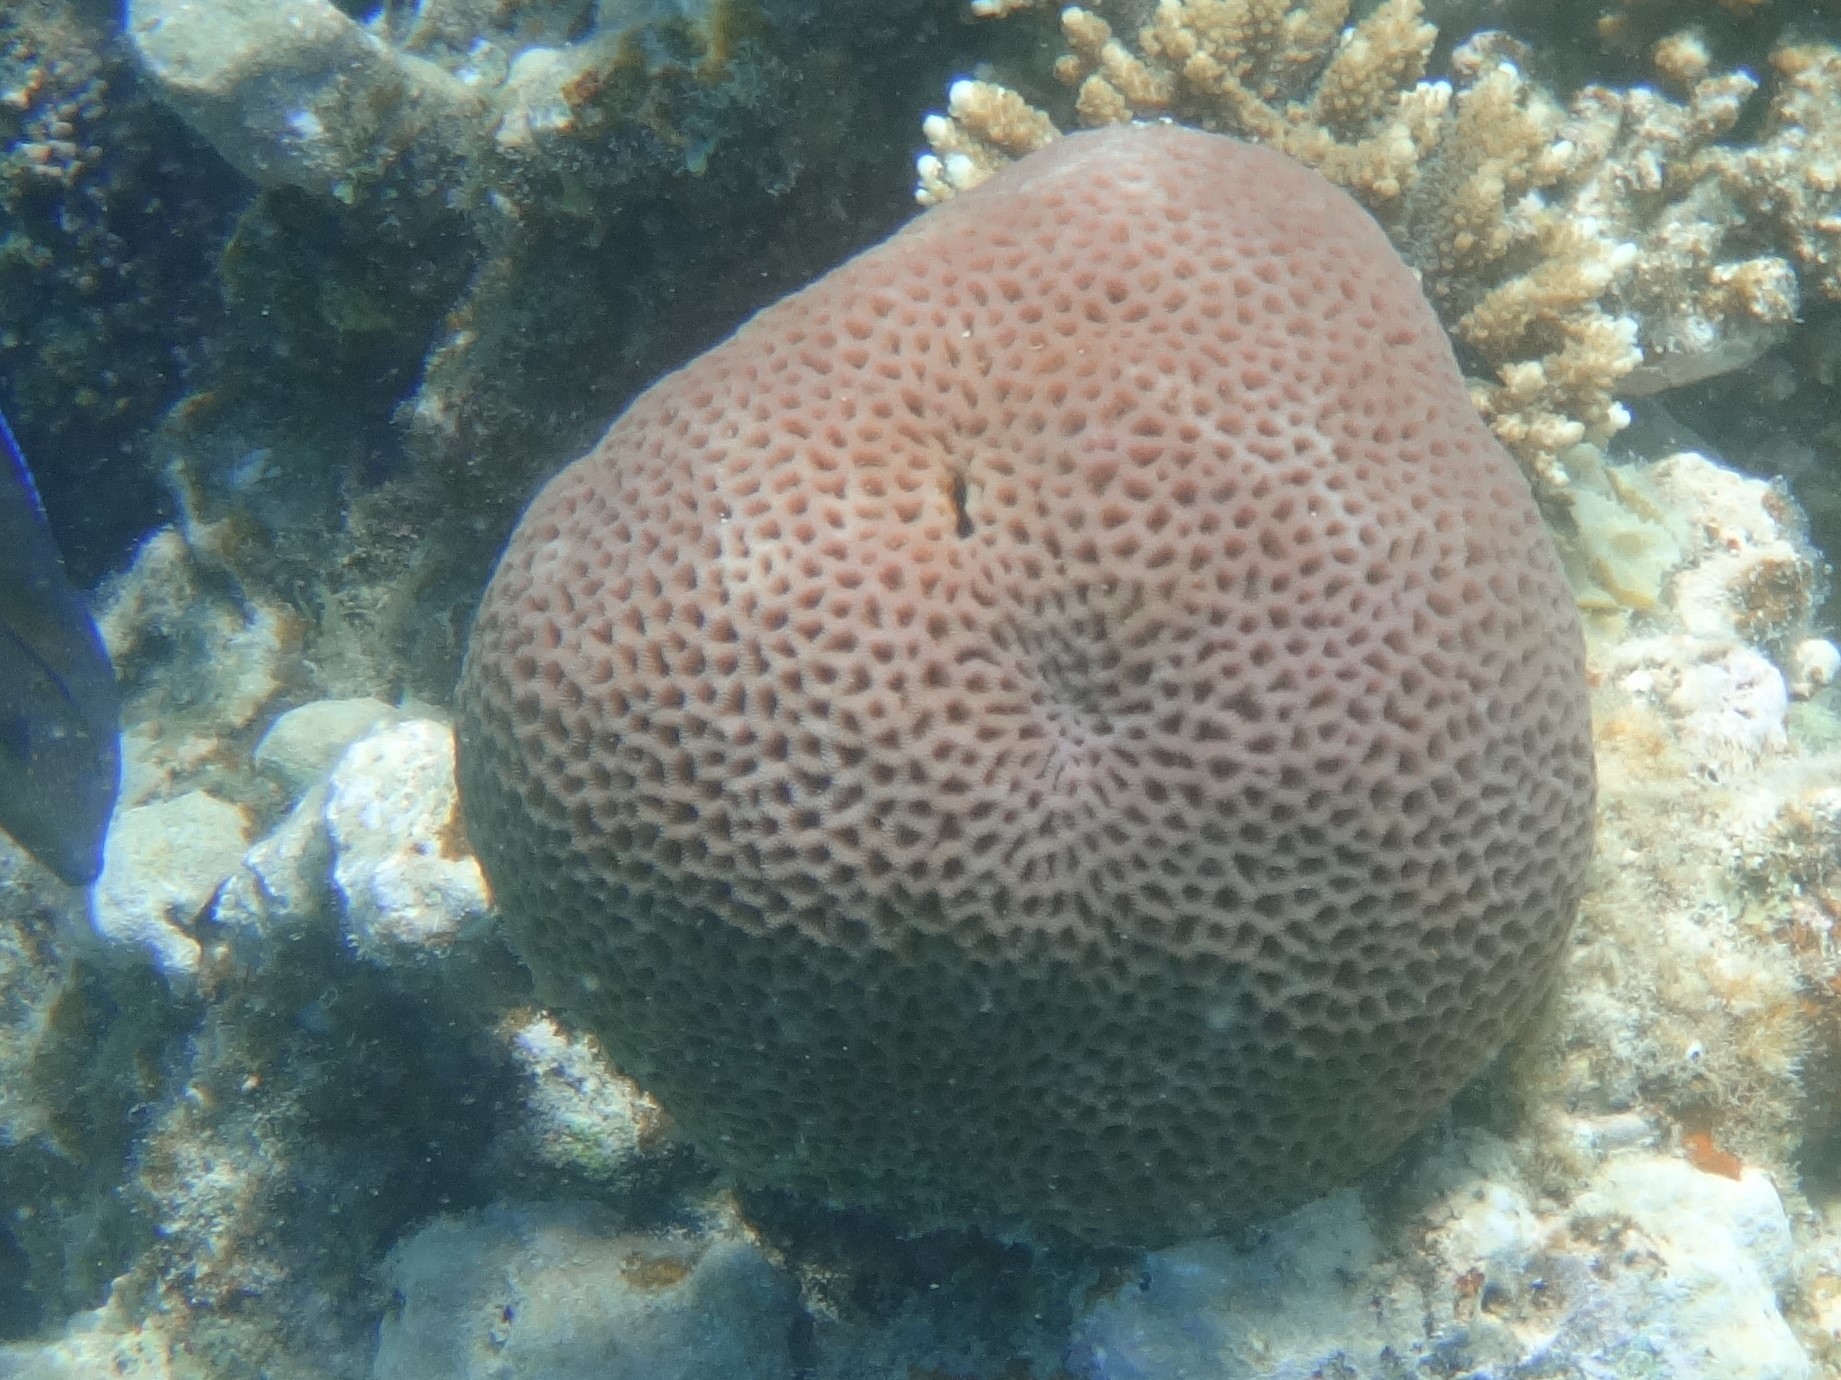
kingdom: Animalia
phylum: Cnidaria
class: Anthozoa
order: Scleractinia
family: Merulinidae
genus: Goniastrea
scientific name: Goniastrea pectinata
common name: Lesser star coral
